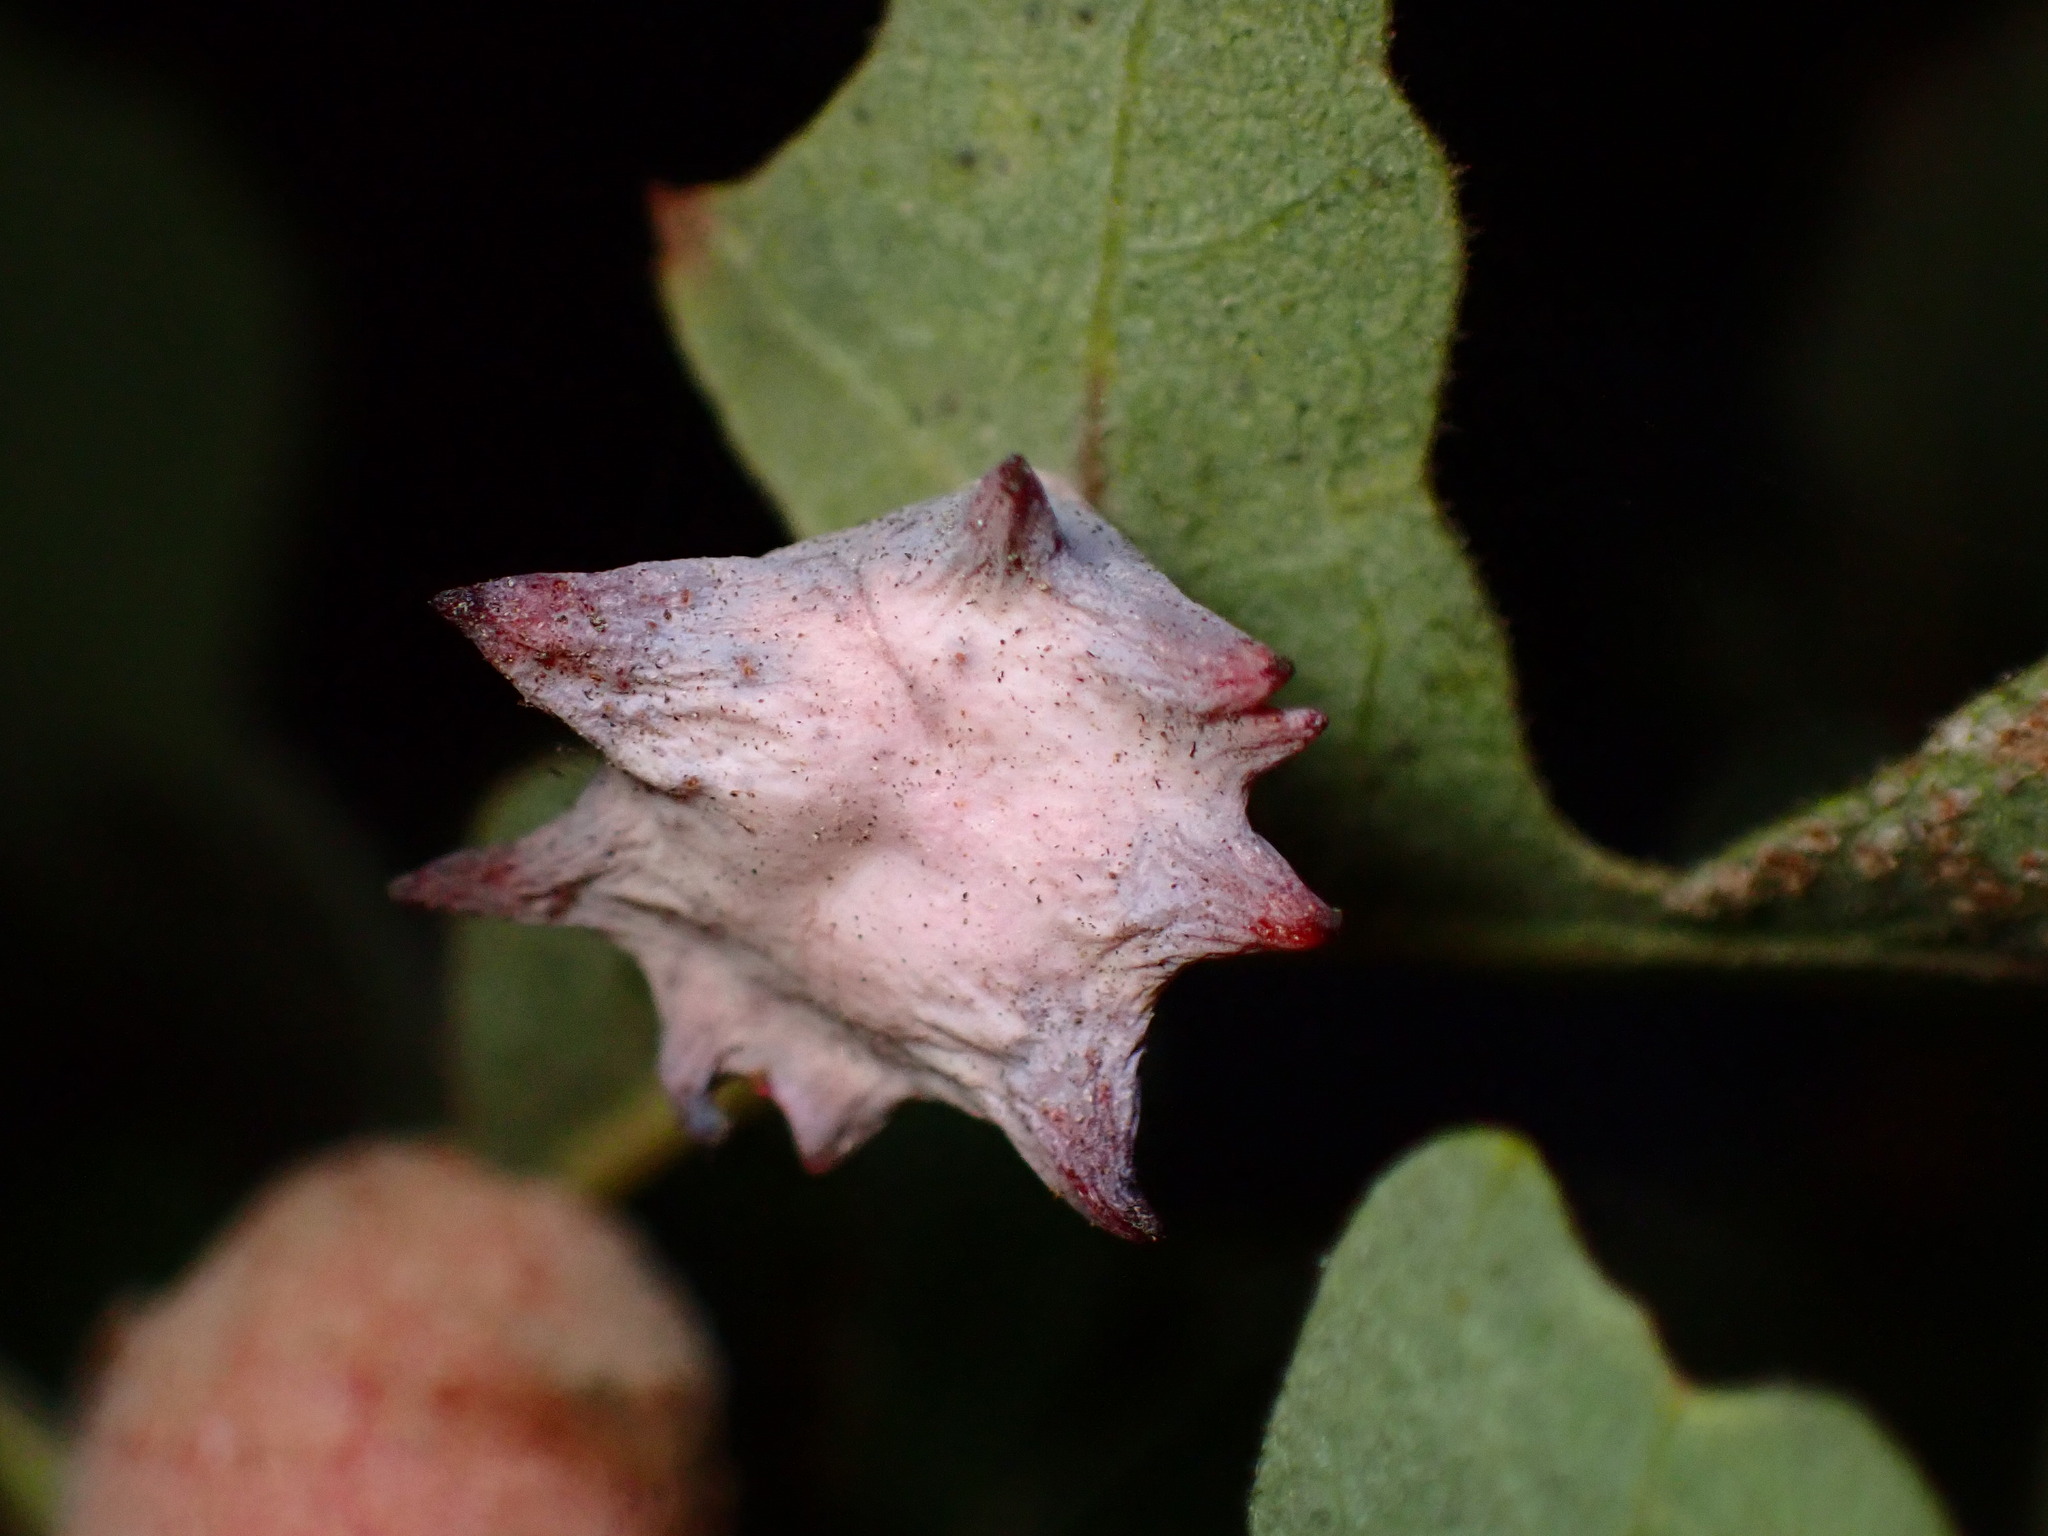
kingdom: Animalia
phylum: Arthropoda
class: Insecta
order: Hymenoptera
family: Cynipidae
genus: Cynips
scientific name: Cynips douglasi
